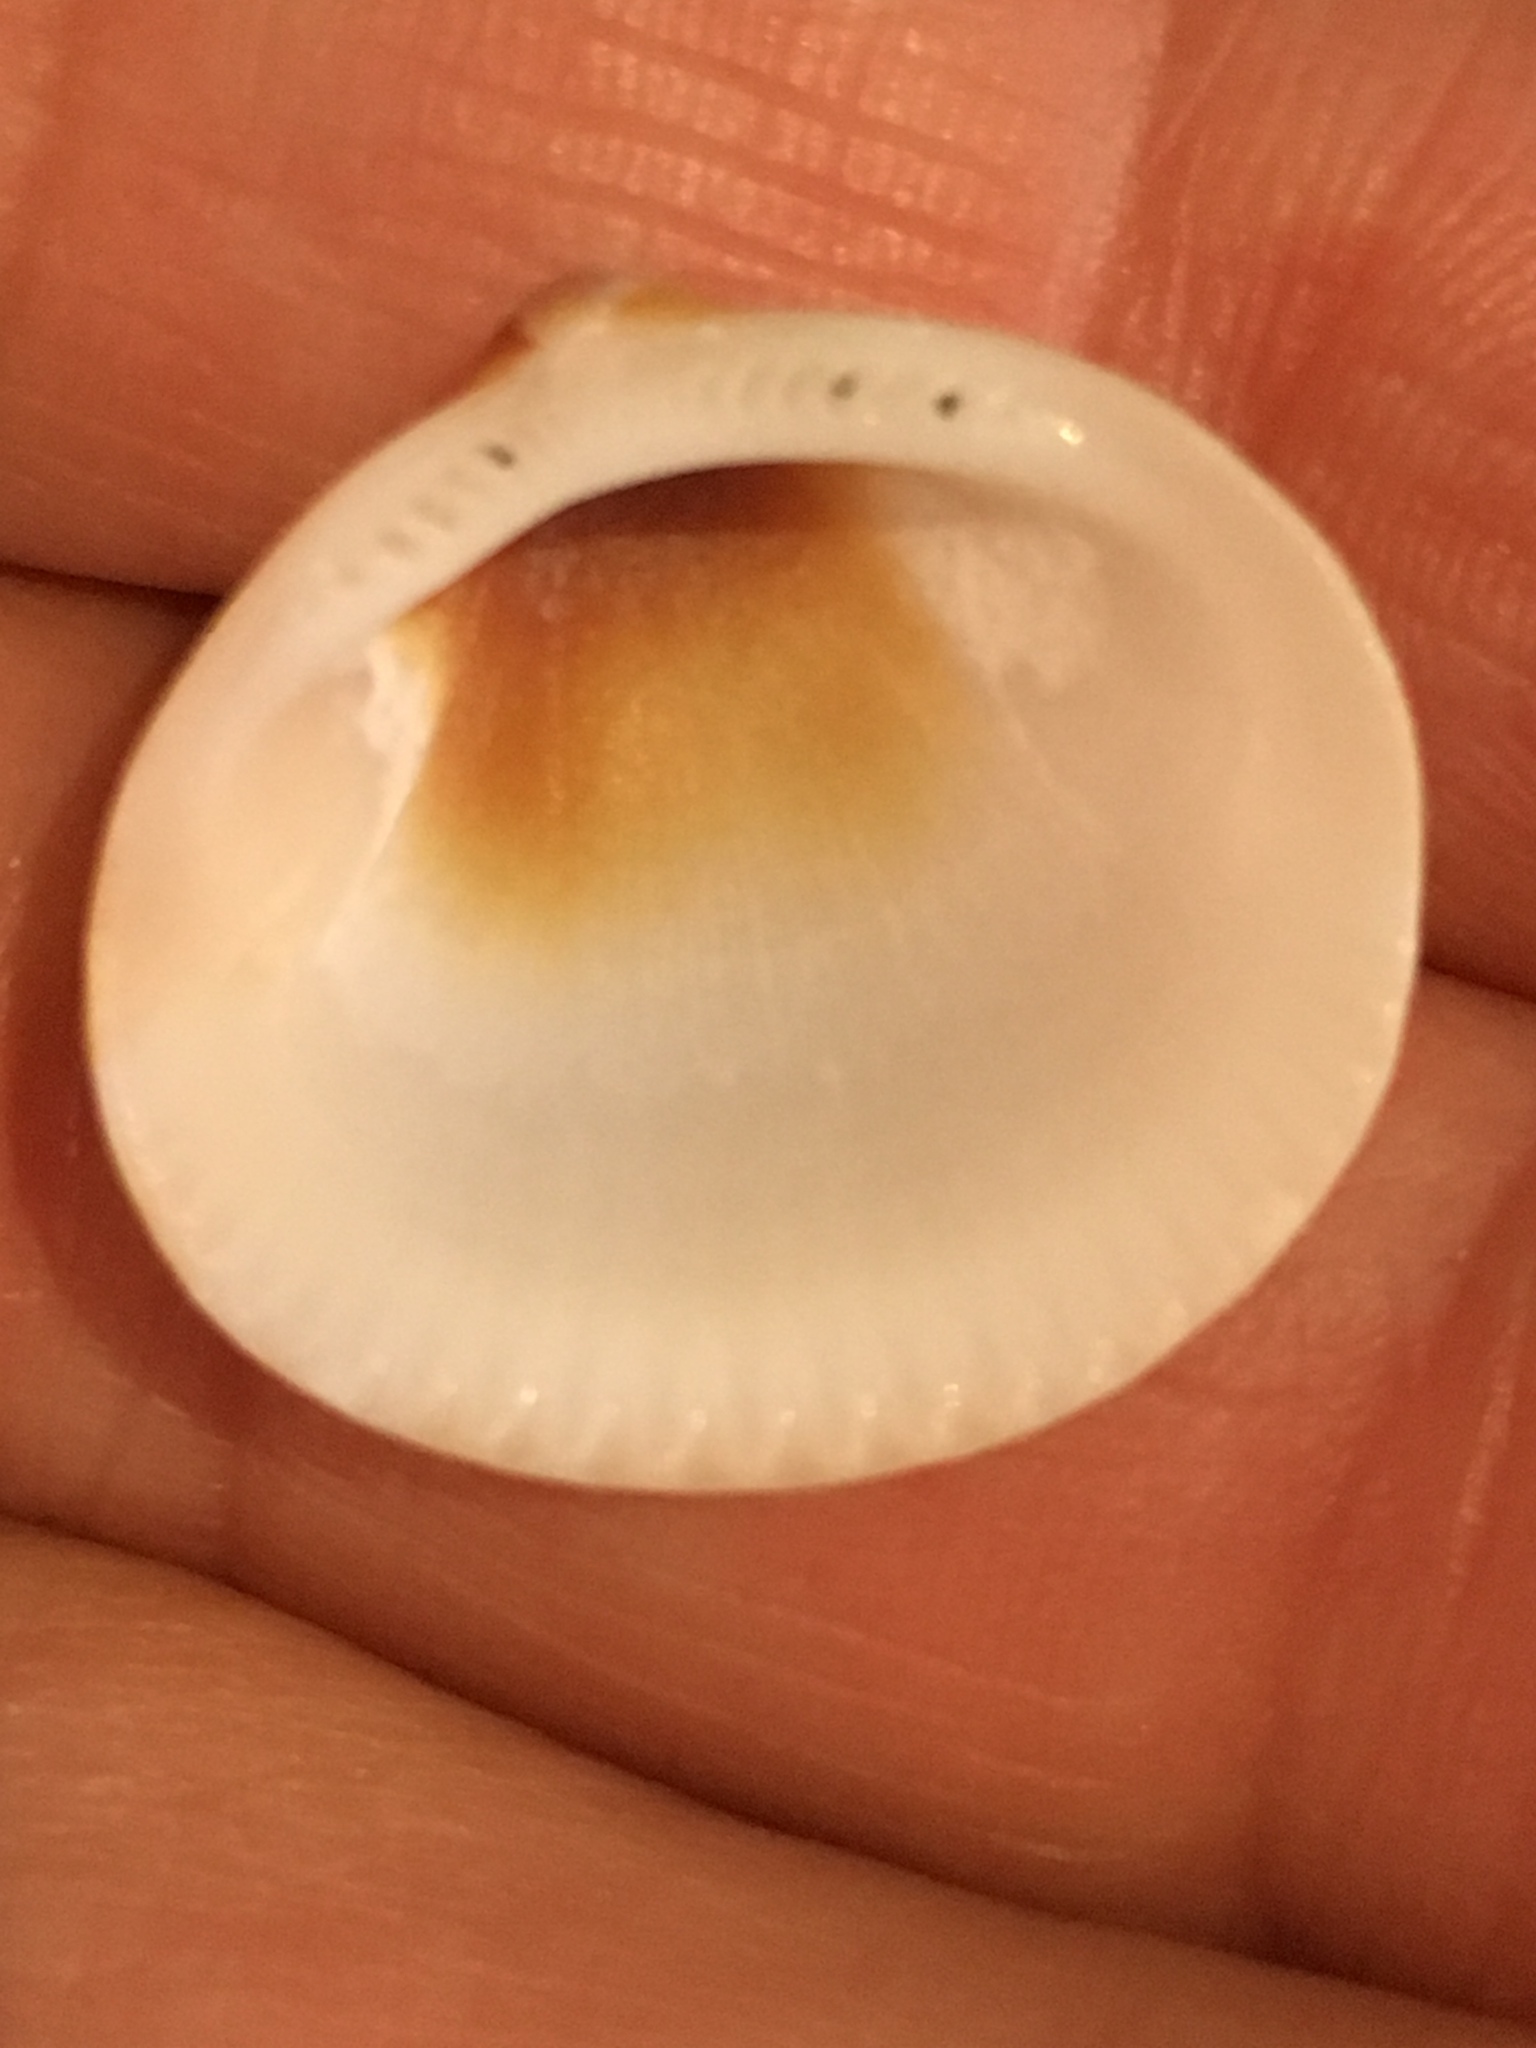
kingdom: Animalia
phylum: Mollusca
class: Bivalvia
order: Arcida
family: Glycymerididae
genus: Glycymeris
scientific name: Glycymeris spectralis
